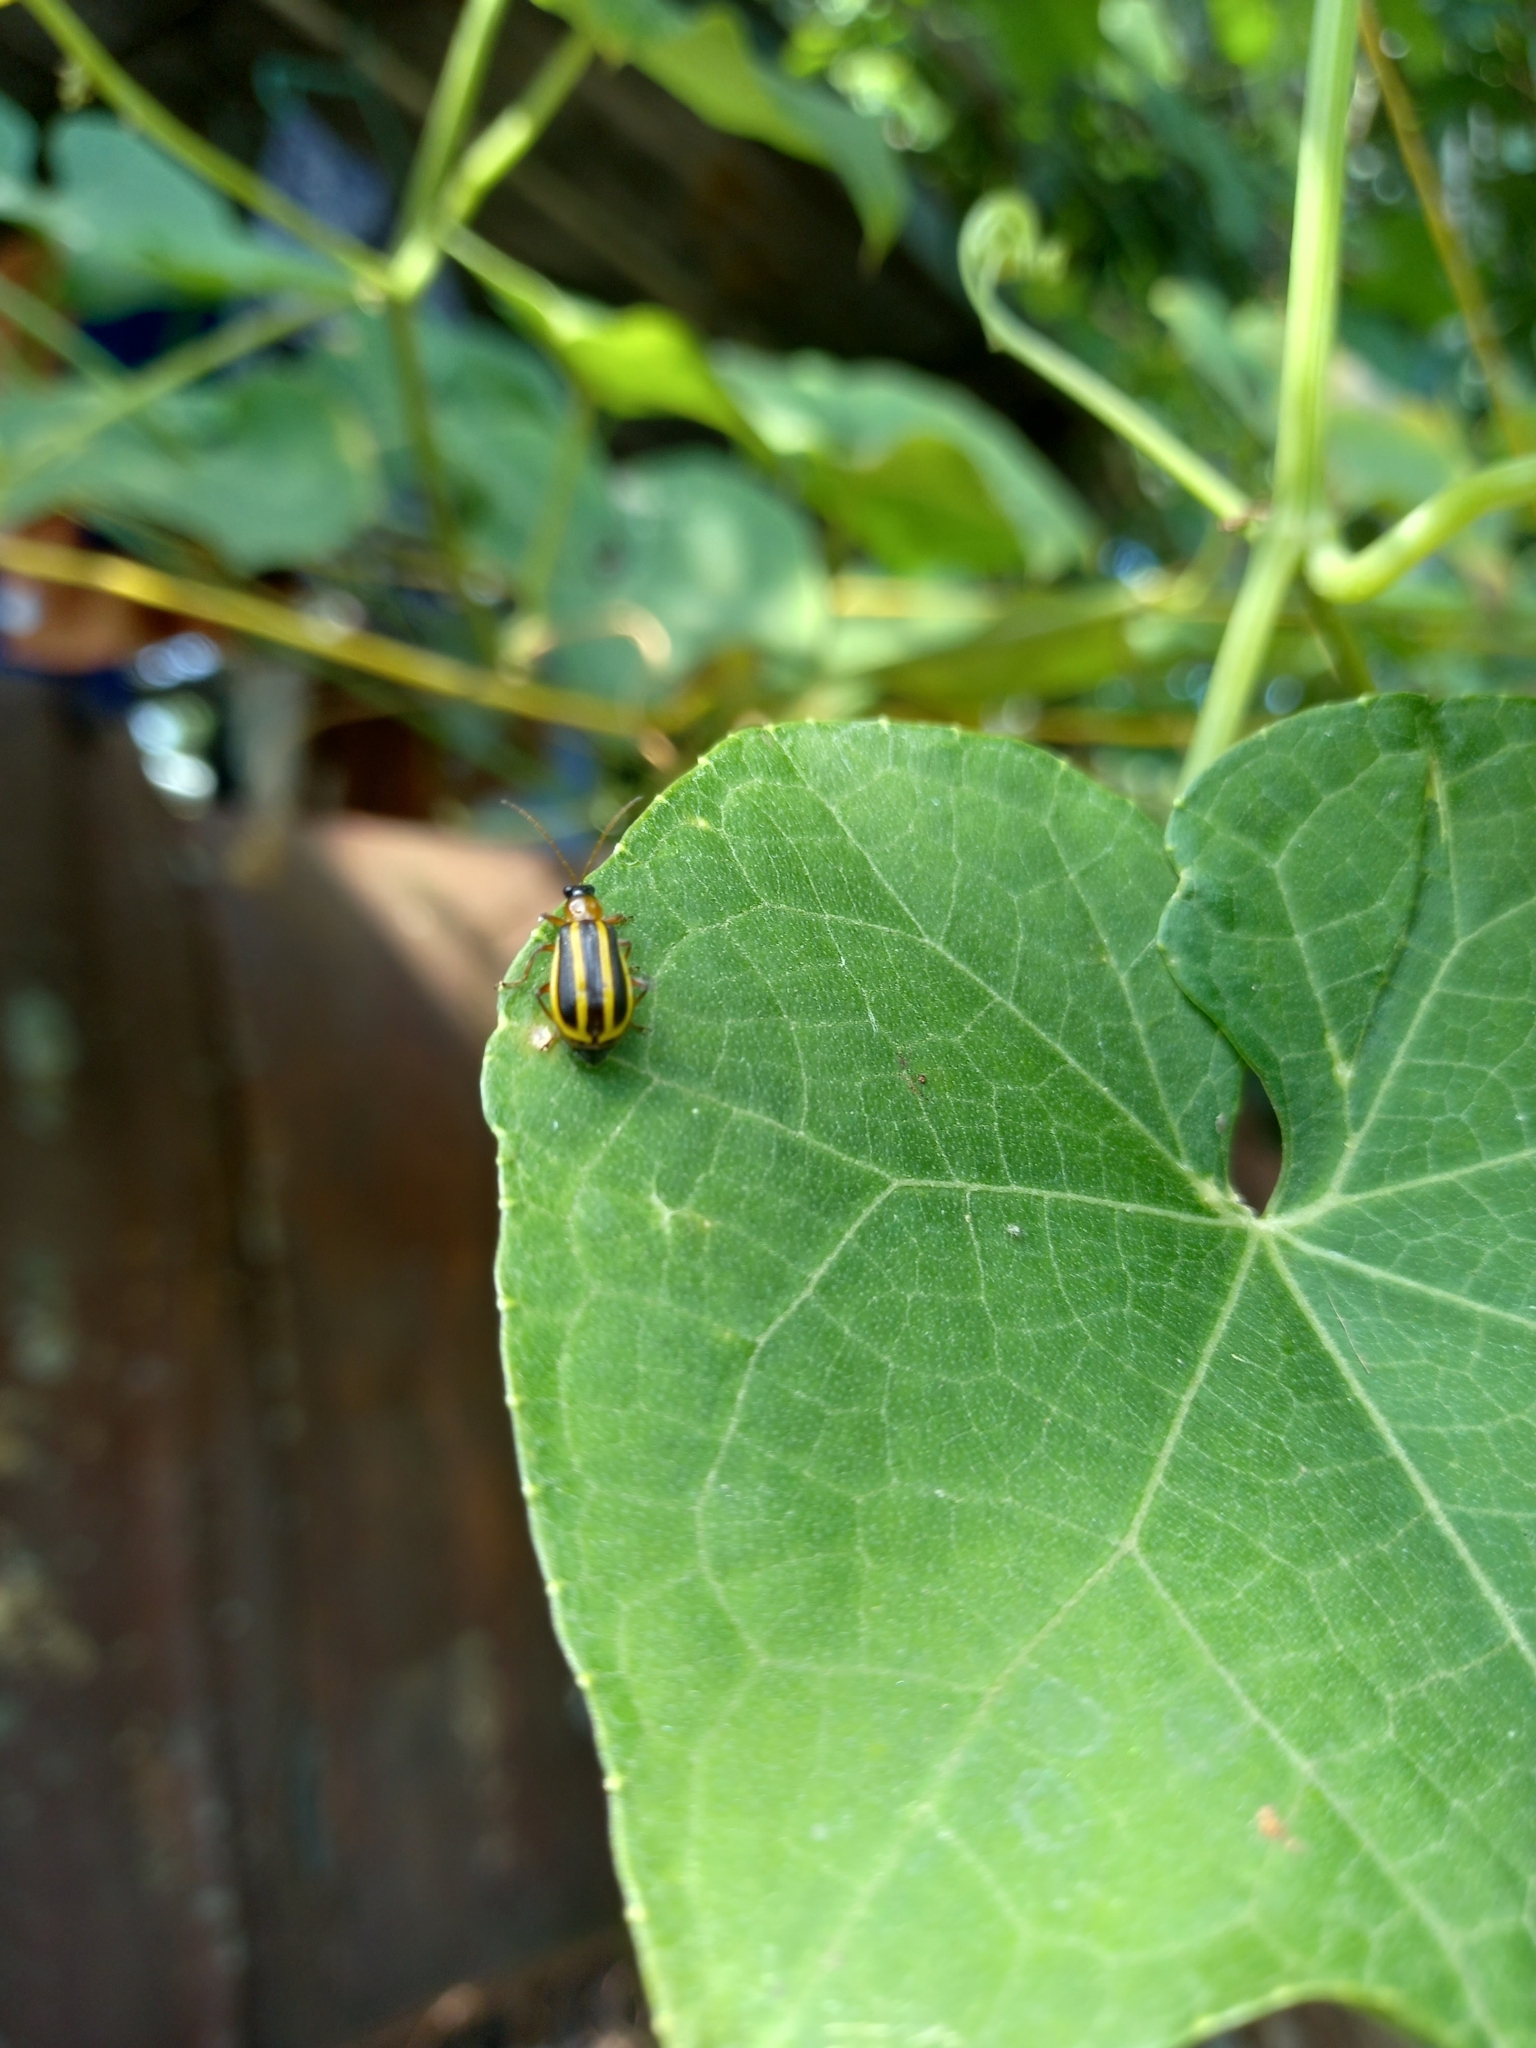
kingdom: Animalia
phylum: Arthropoda
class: Insecta
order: Coleoptera
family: Chrysomelidae
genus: Acalymma
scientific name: Acalymma vittatum
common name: Striped cucumber beetle
